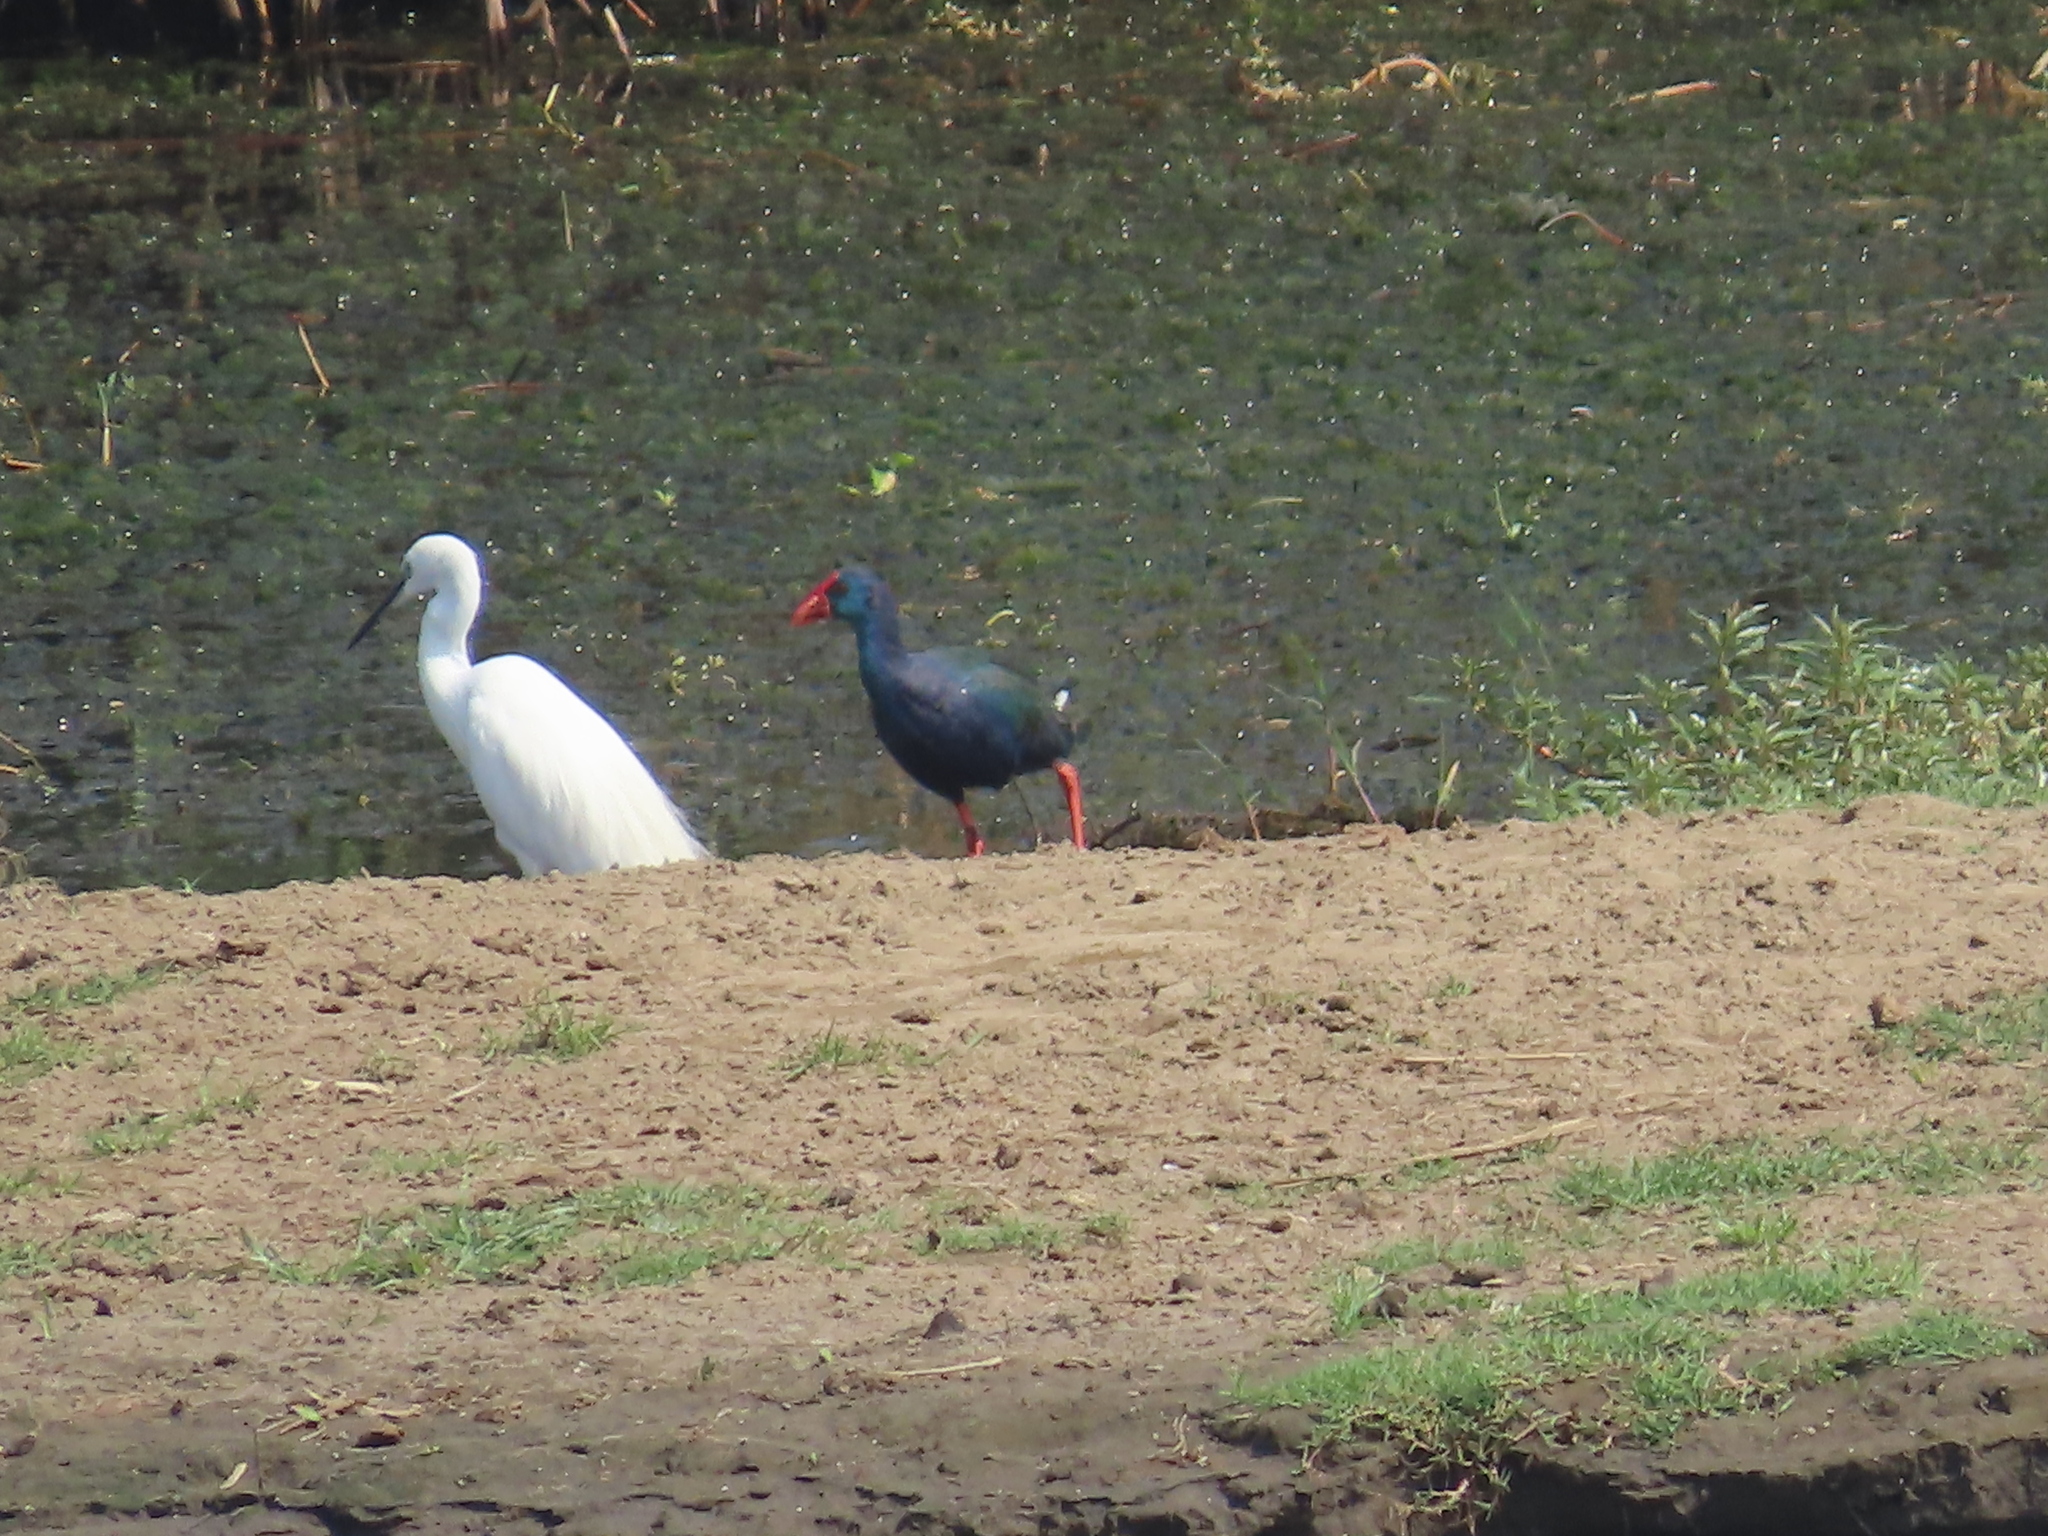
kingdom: Animalia
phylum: Chordata
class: Aves
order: Gruiformes
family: Rallidae
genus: Porphyrio
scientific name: Porphyrio porphyrio
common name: Purple swamphen
